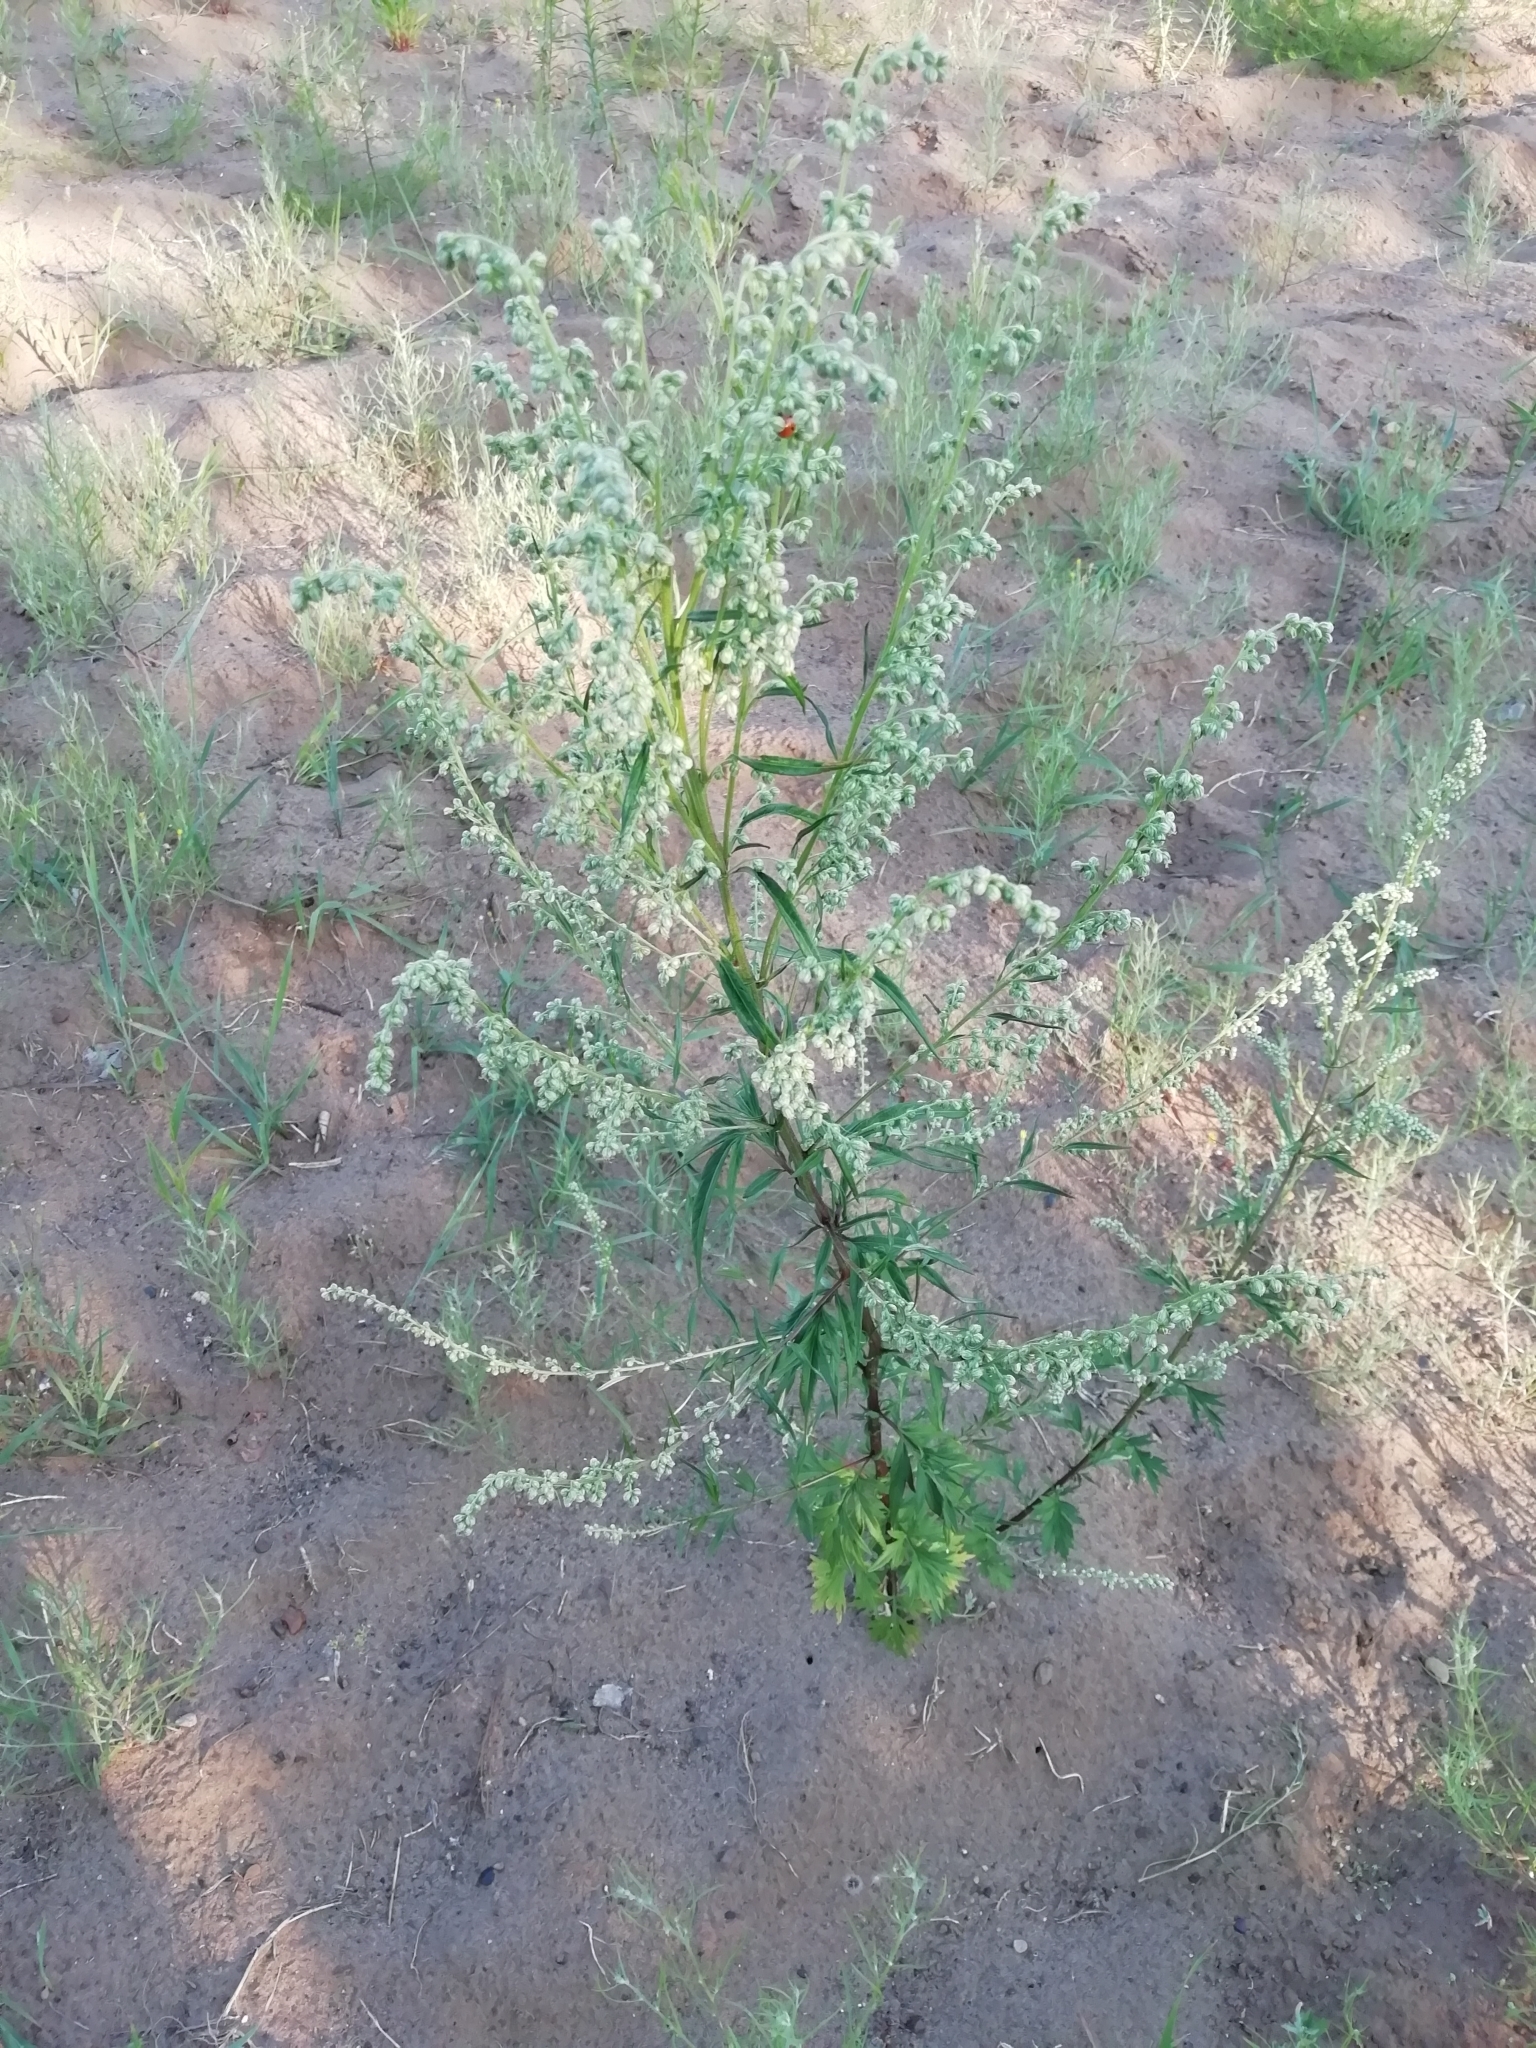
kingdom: Plantae
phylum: Tracheophyta
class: Magnoliopsida
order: Asterales
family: Asteraceae
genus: Artemisia
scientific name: Artemisia vulgaris
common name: Mugwort
